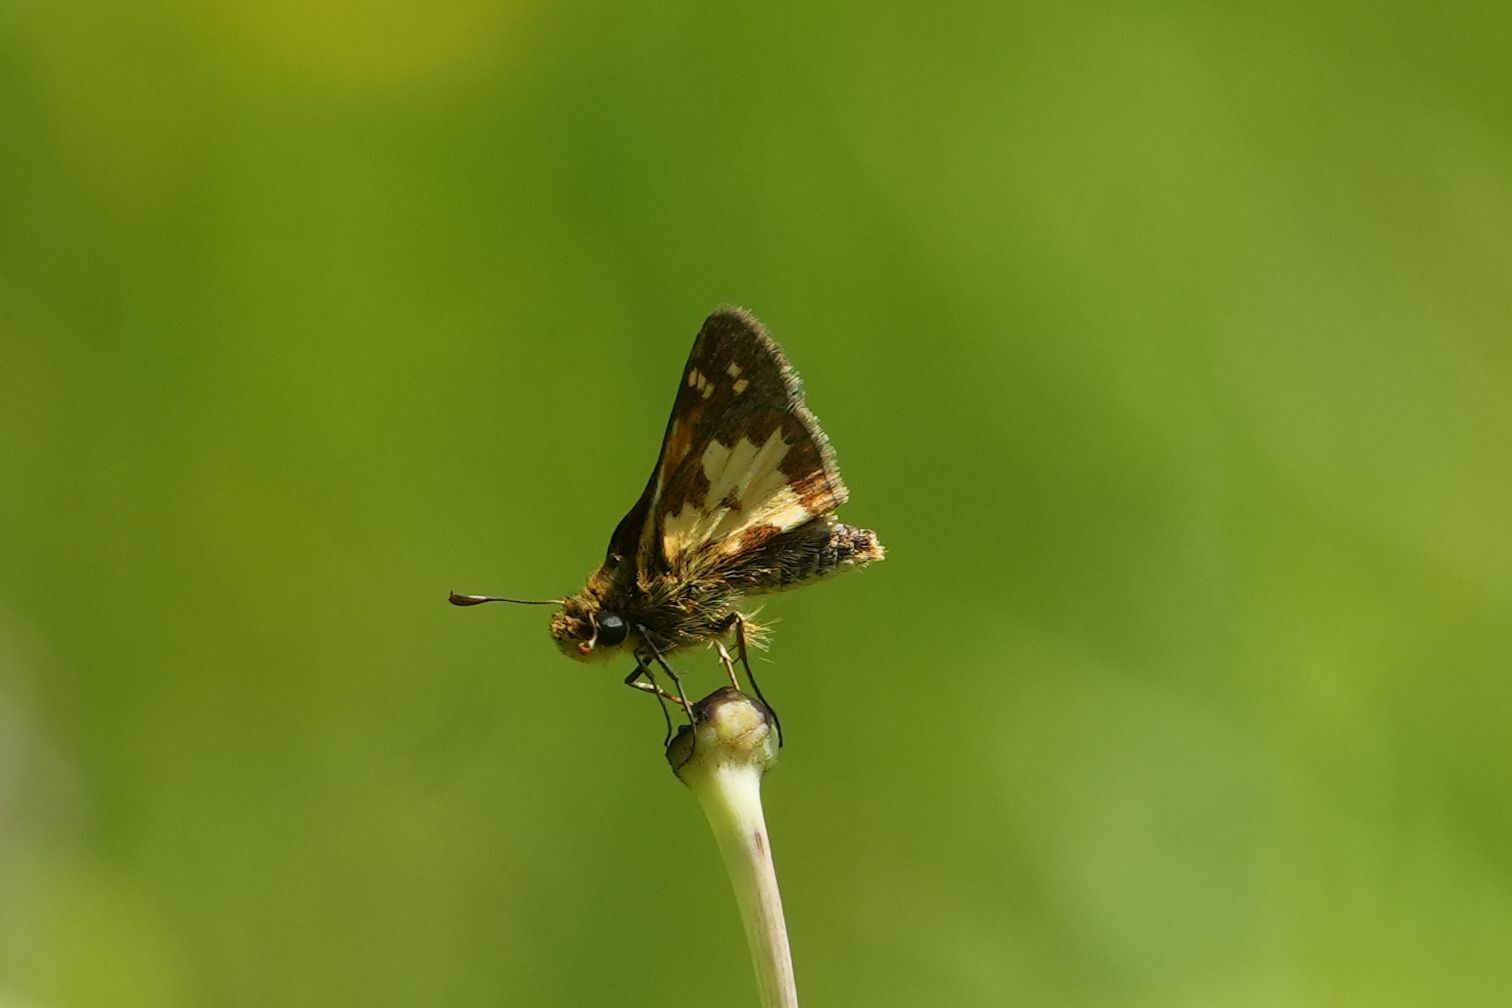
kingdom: Animalia
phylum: Arthropoda
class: Insecta
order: Lepidoptera
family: Hesperiidae
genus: Polites
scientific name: Polites coras
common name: Peck's skipper
